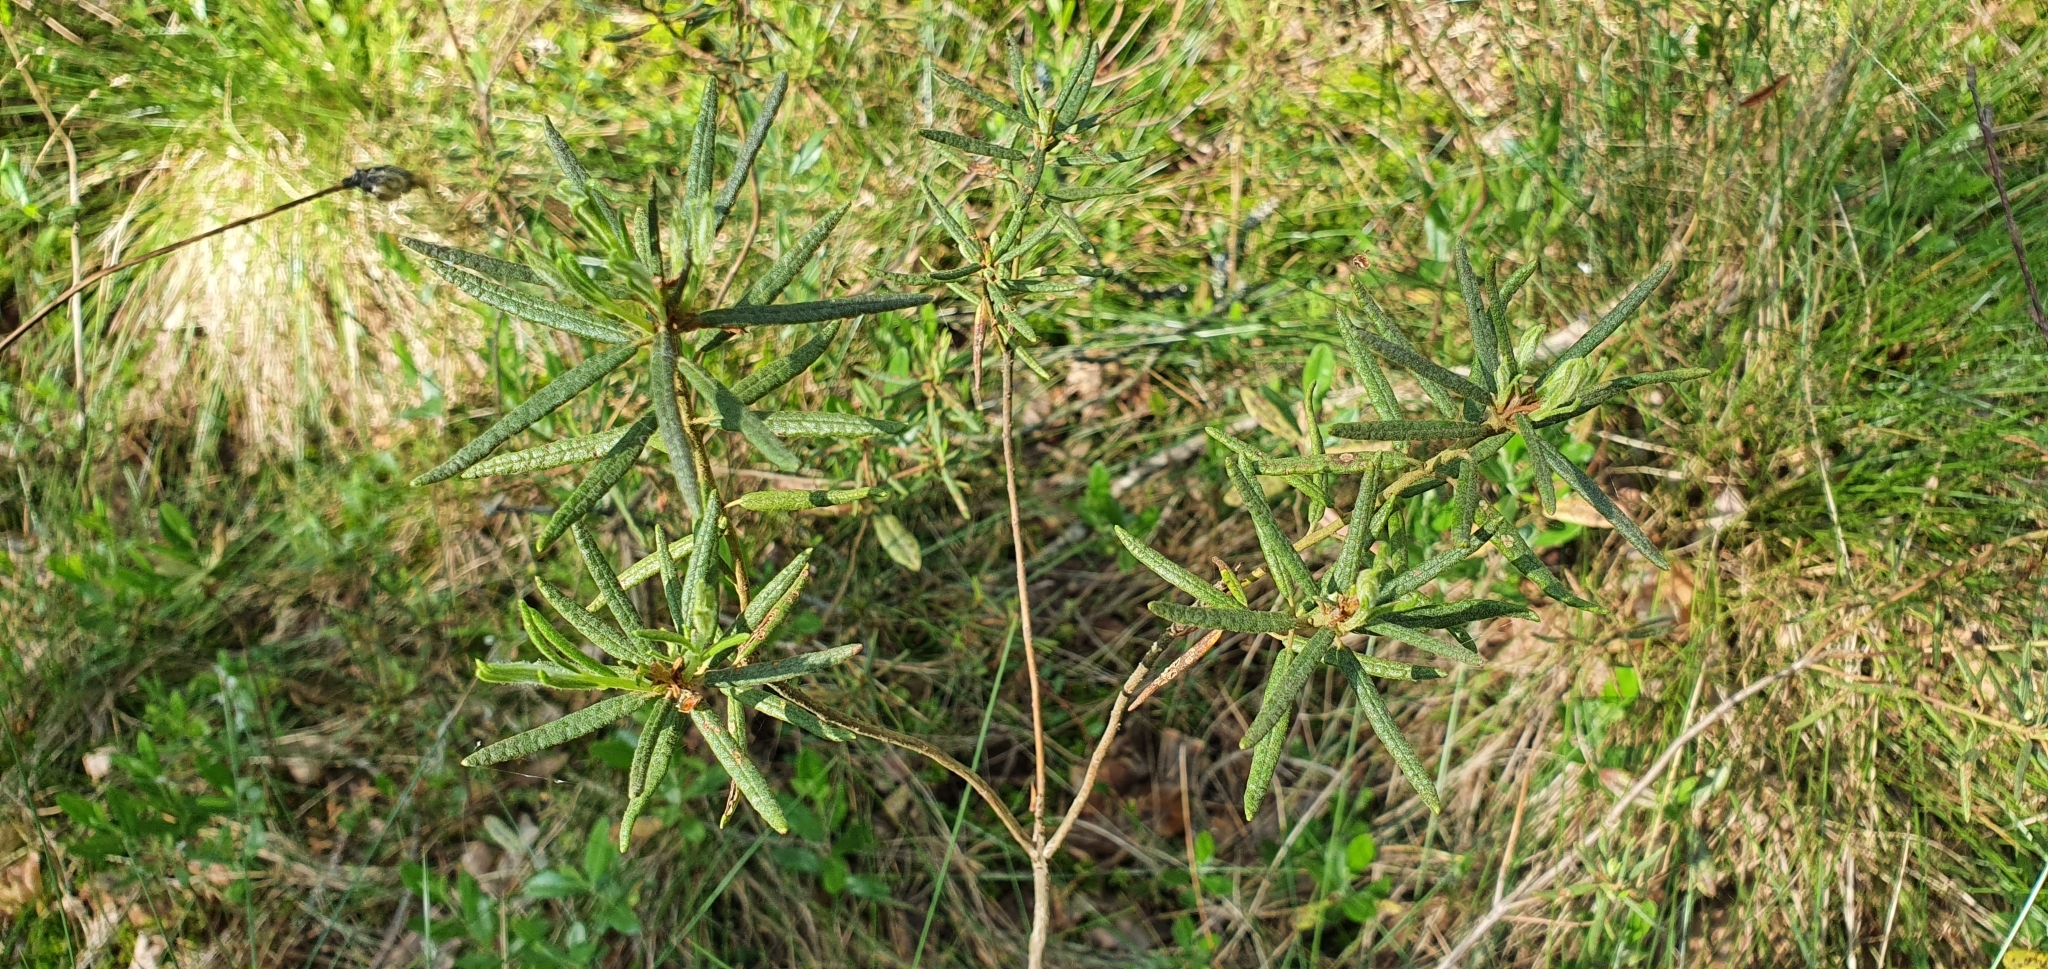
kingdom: Plantae
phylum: Tracheophyta
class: Magnoliopsida
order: Ericales
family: Ericaceae
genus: Rhododendron
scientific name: Rhododendron tomentosum
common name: Marsh labrador tea
